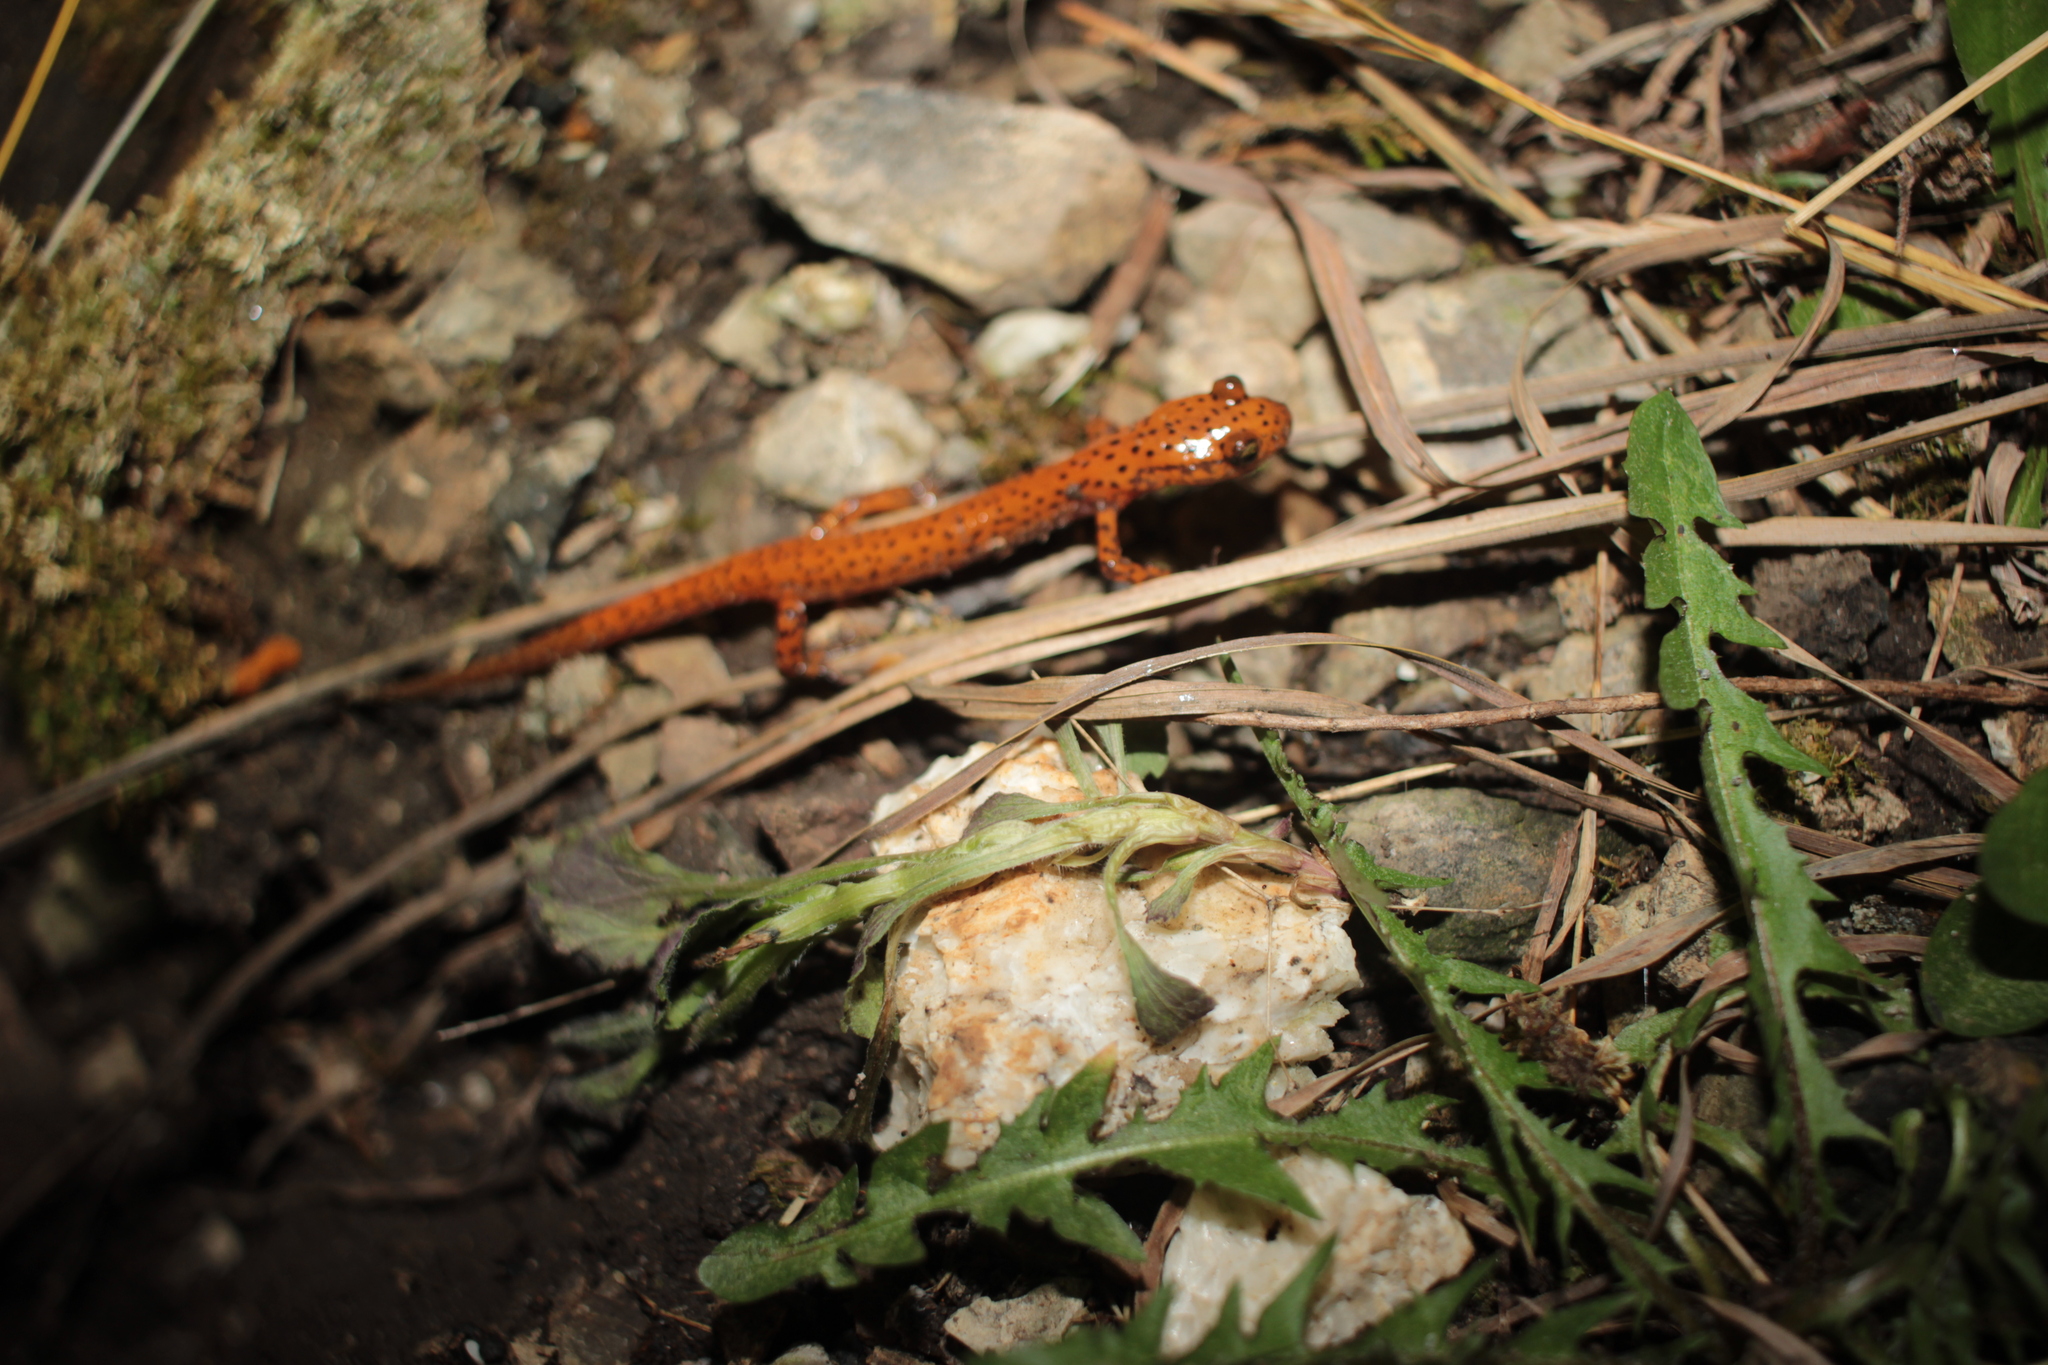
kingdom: Animalia
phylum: Chordata
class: Amphibia
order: Caudata
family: Plethodontidae
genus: Eurycea
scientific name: Eurycea lucifuga
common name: Cave salamander
